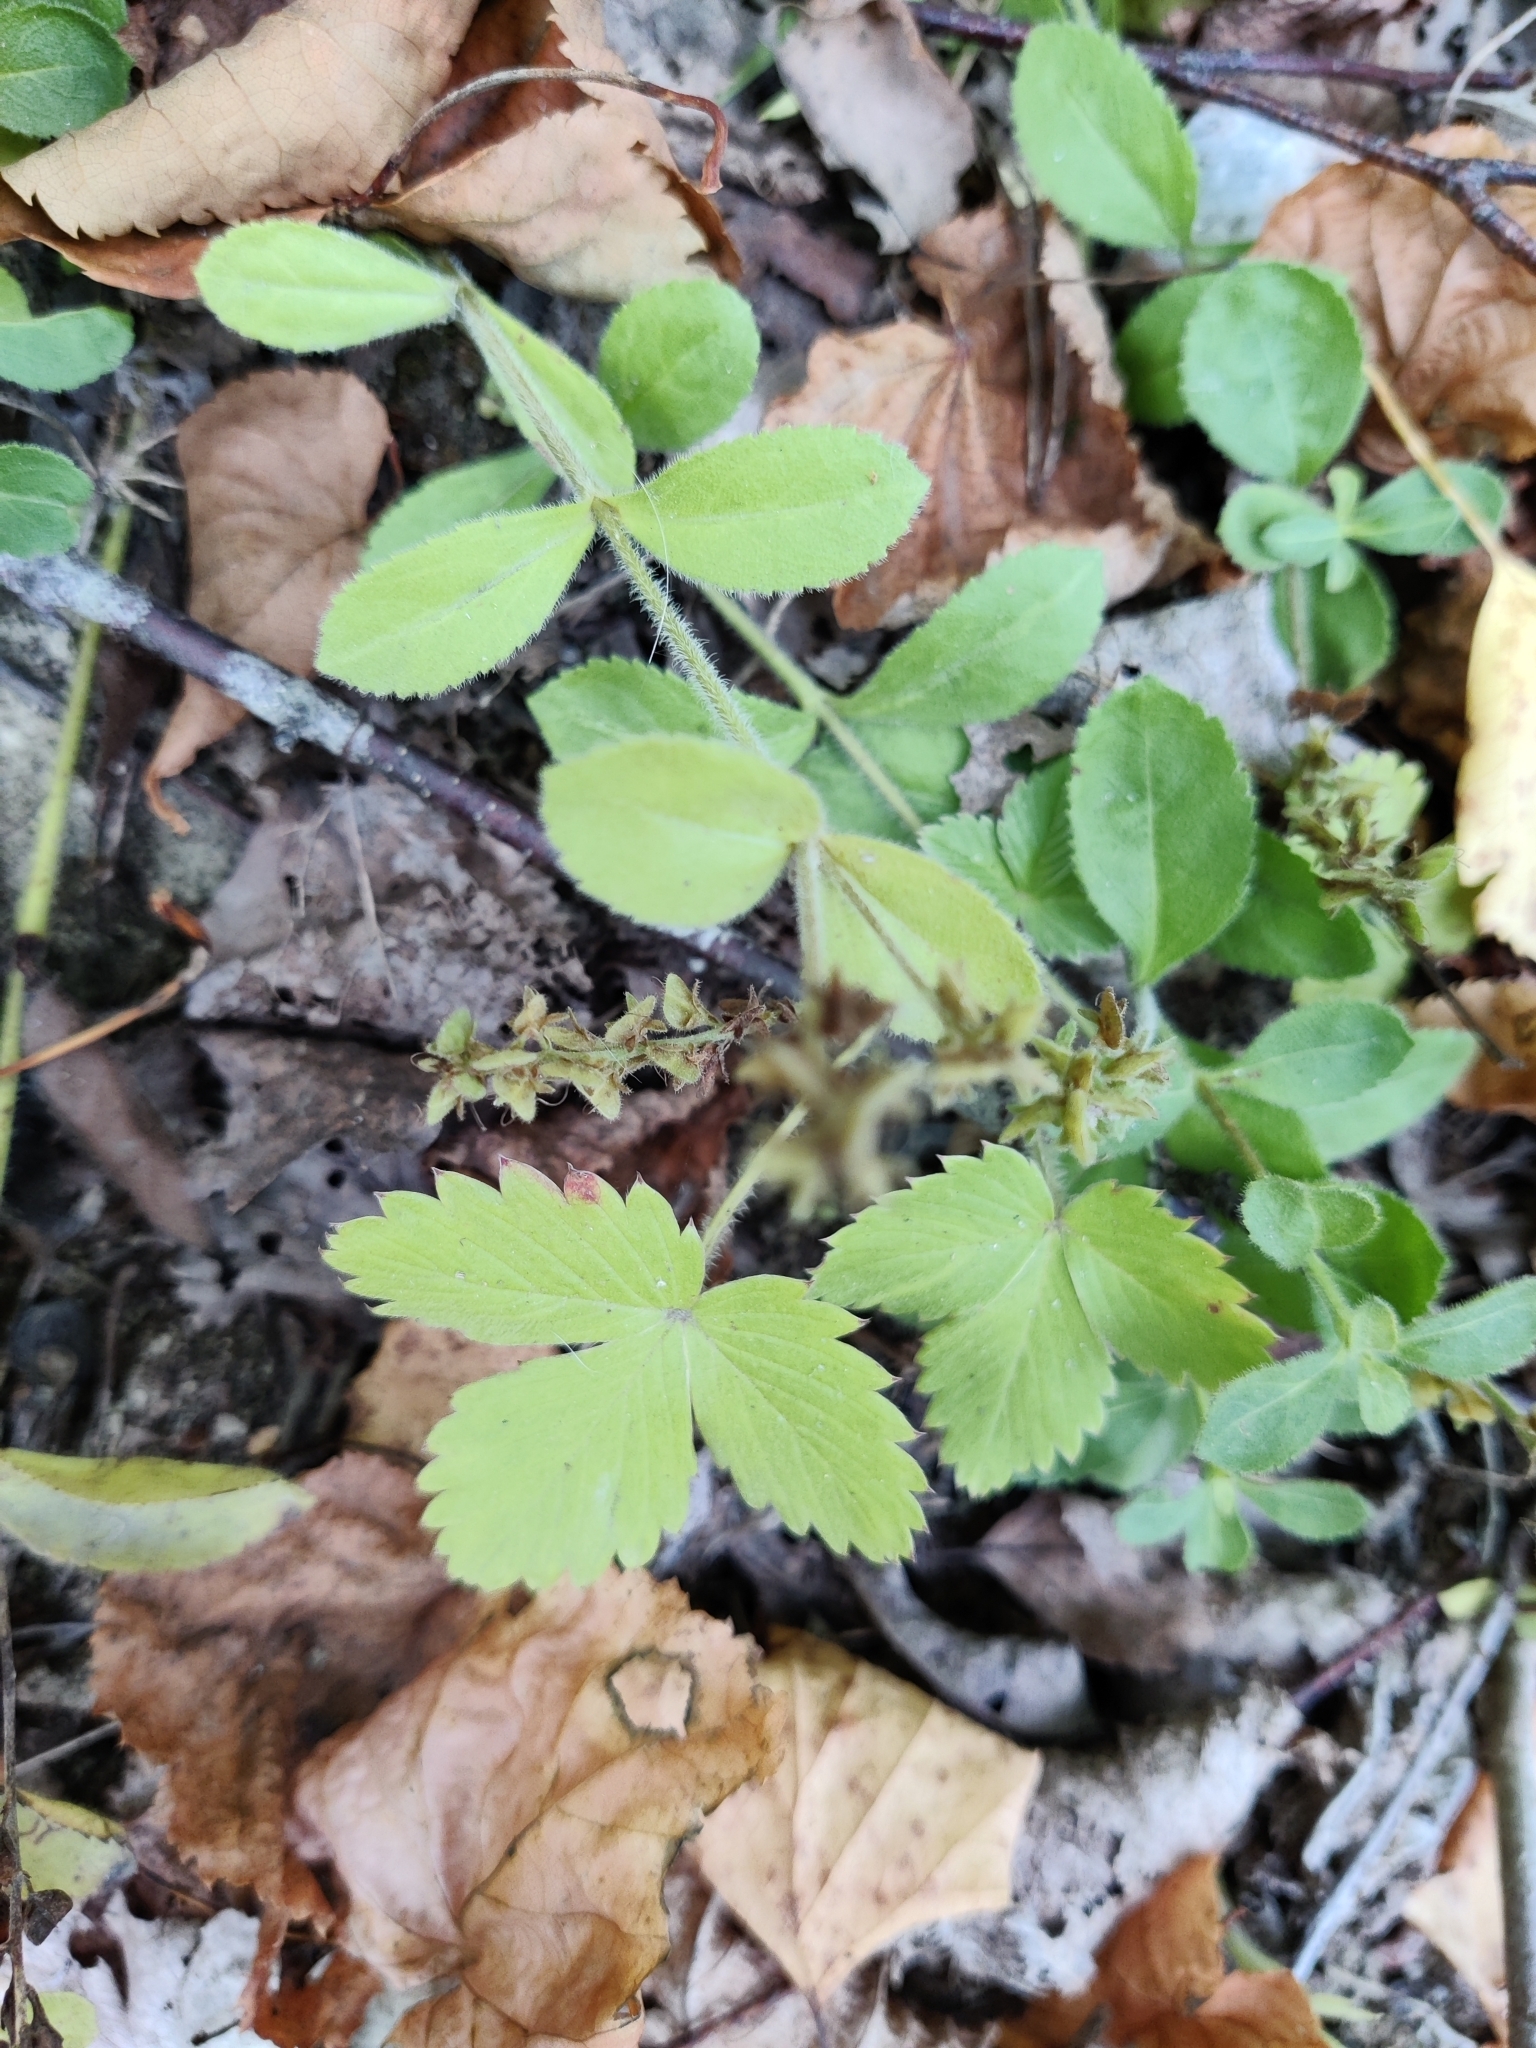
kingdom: Plantae
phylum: Tracheophyta
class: Magnoliopsida
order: Lamiales
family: Plantaginaceae
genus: Veronica
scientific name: Veronica officinalis
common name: Common speedwell
